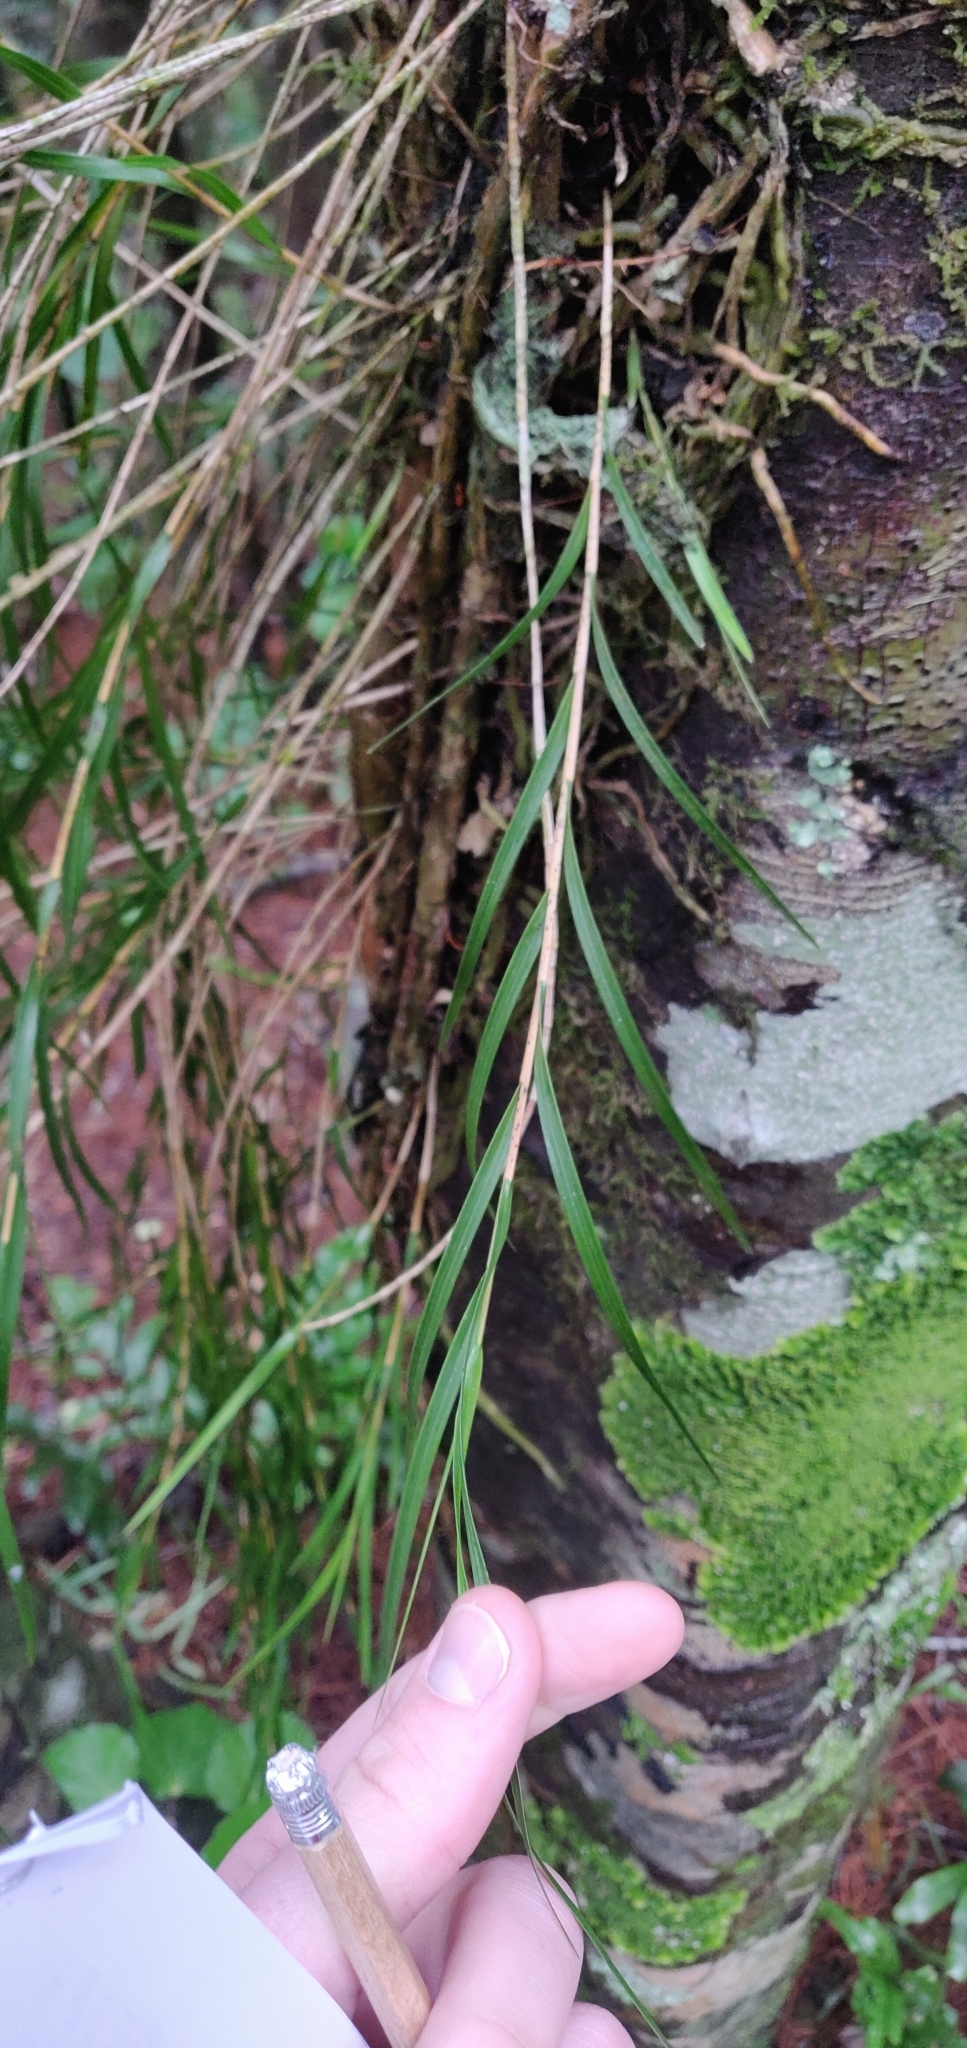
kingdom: Plantae
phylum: Tracheophyta
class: Liliopsida
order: Asparagales
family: Orchidaceae
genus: Earina
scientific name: Earina mucronata
